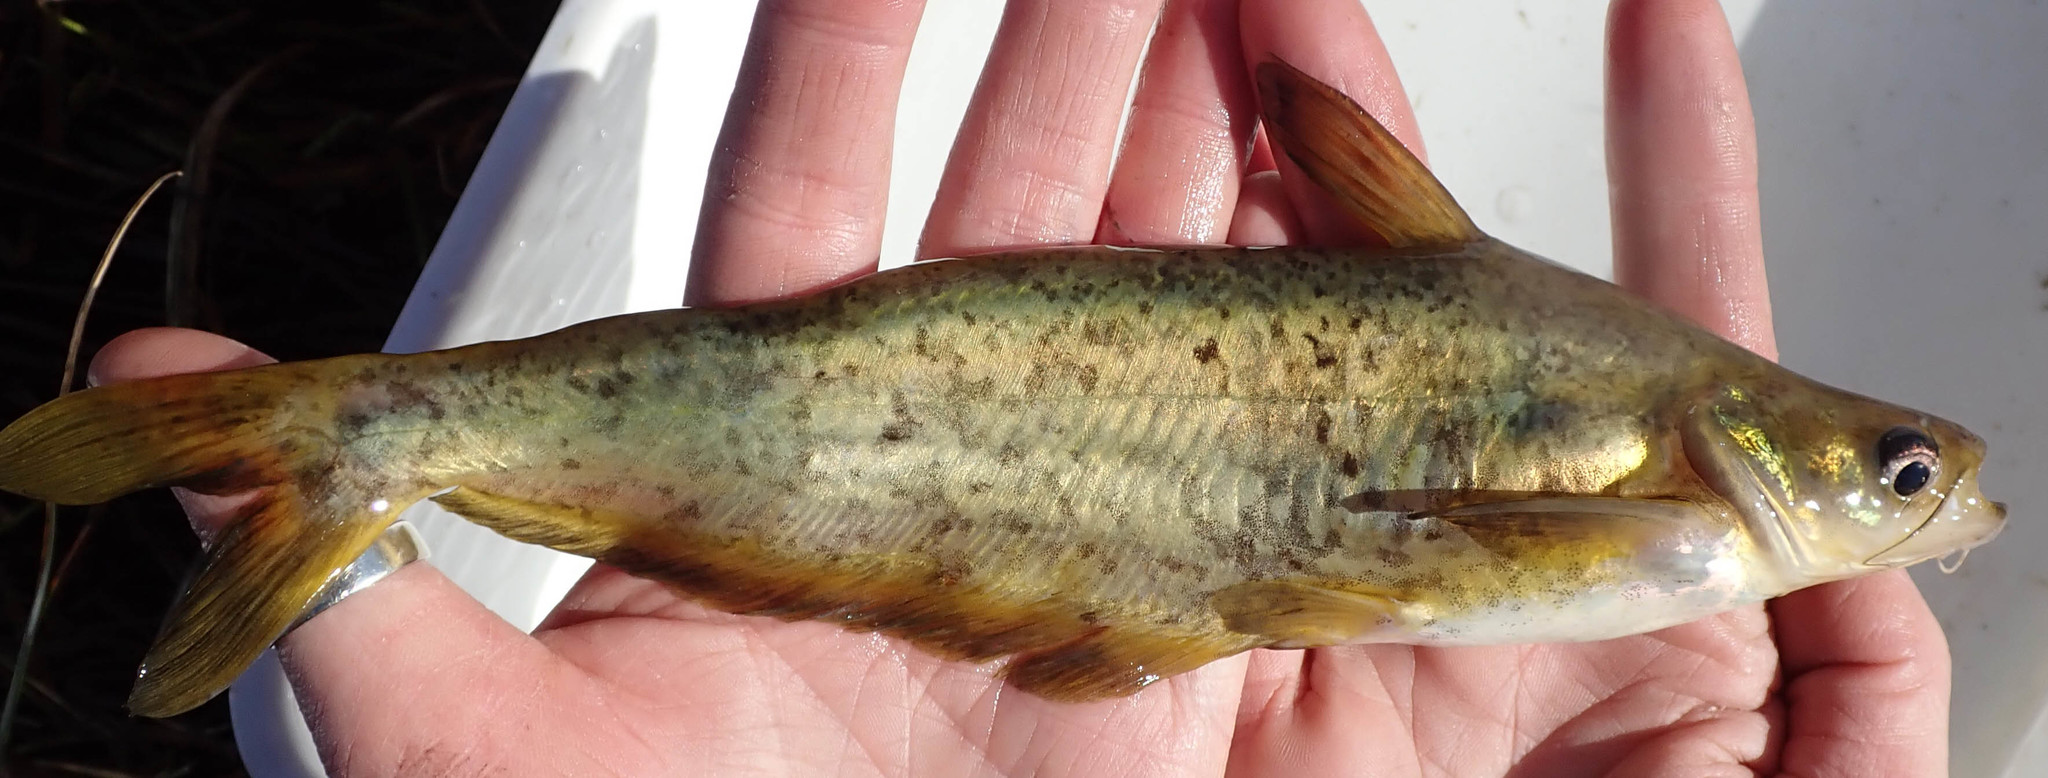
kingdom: Animalia
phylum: Chordata
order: Siluriformes
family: Schilbeidae
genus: Schilbe
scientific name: Schilbe intermedius
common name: Silver catfish
